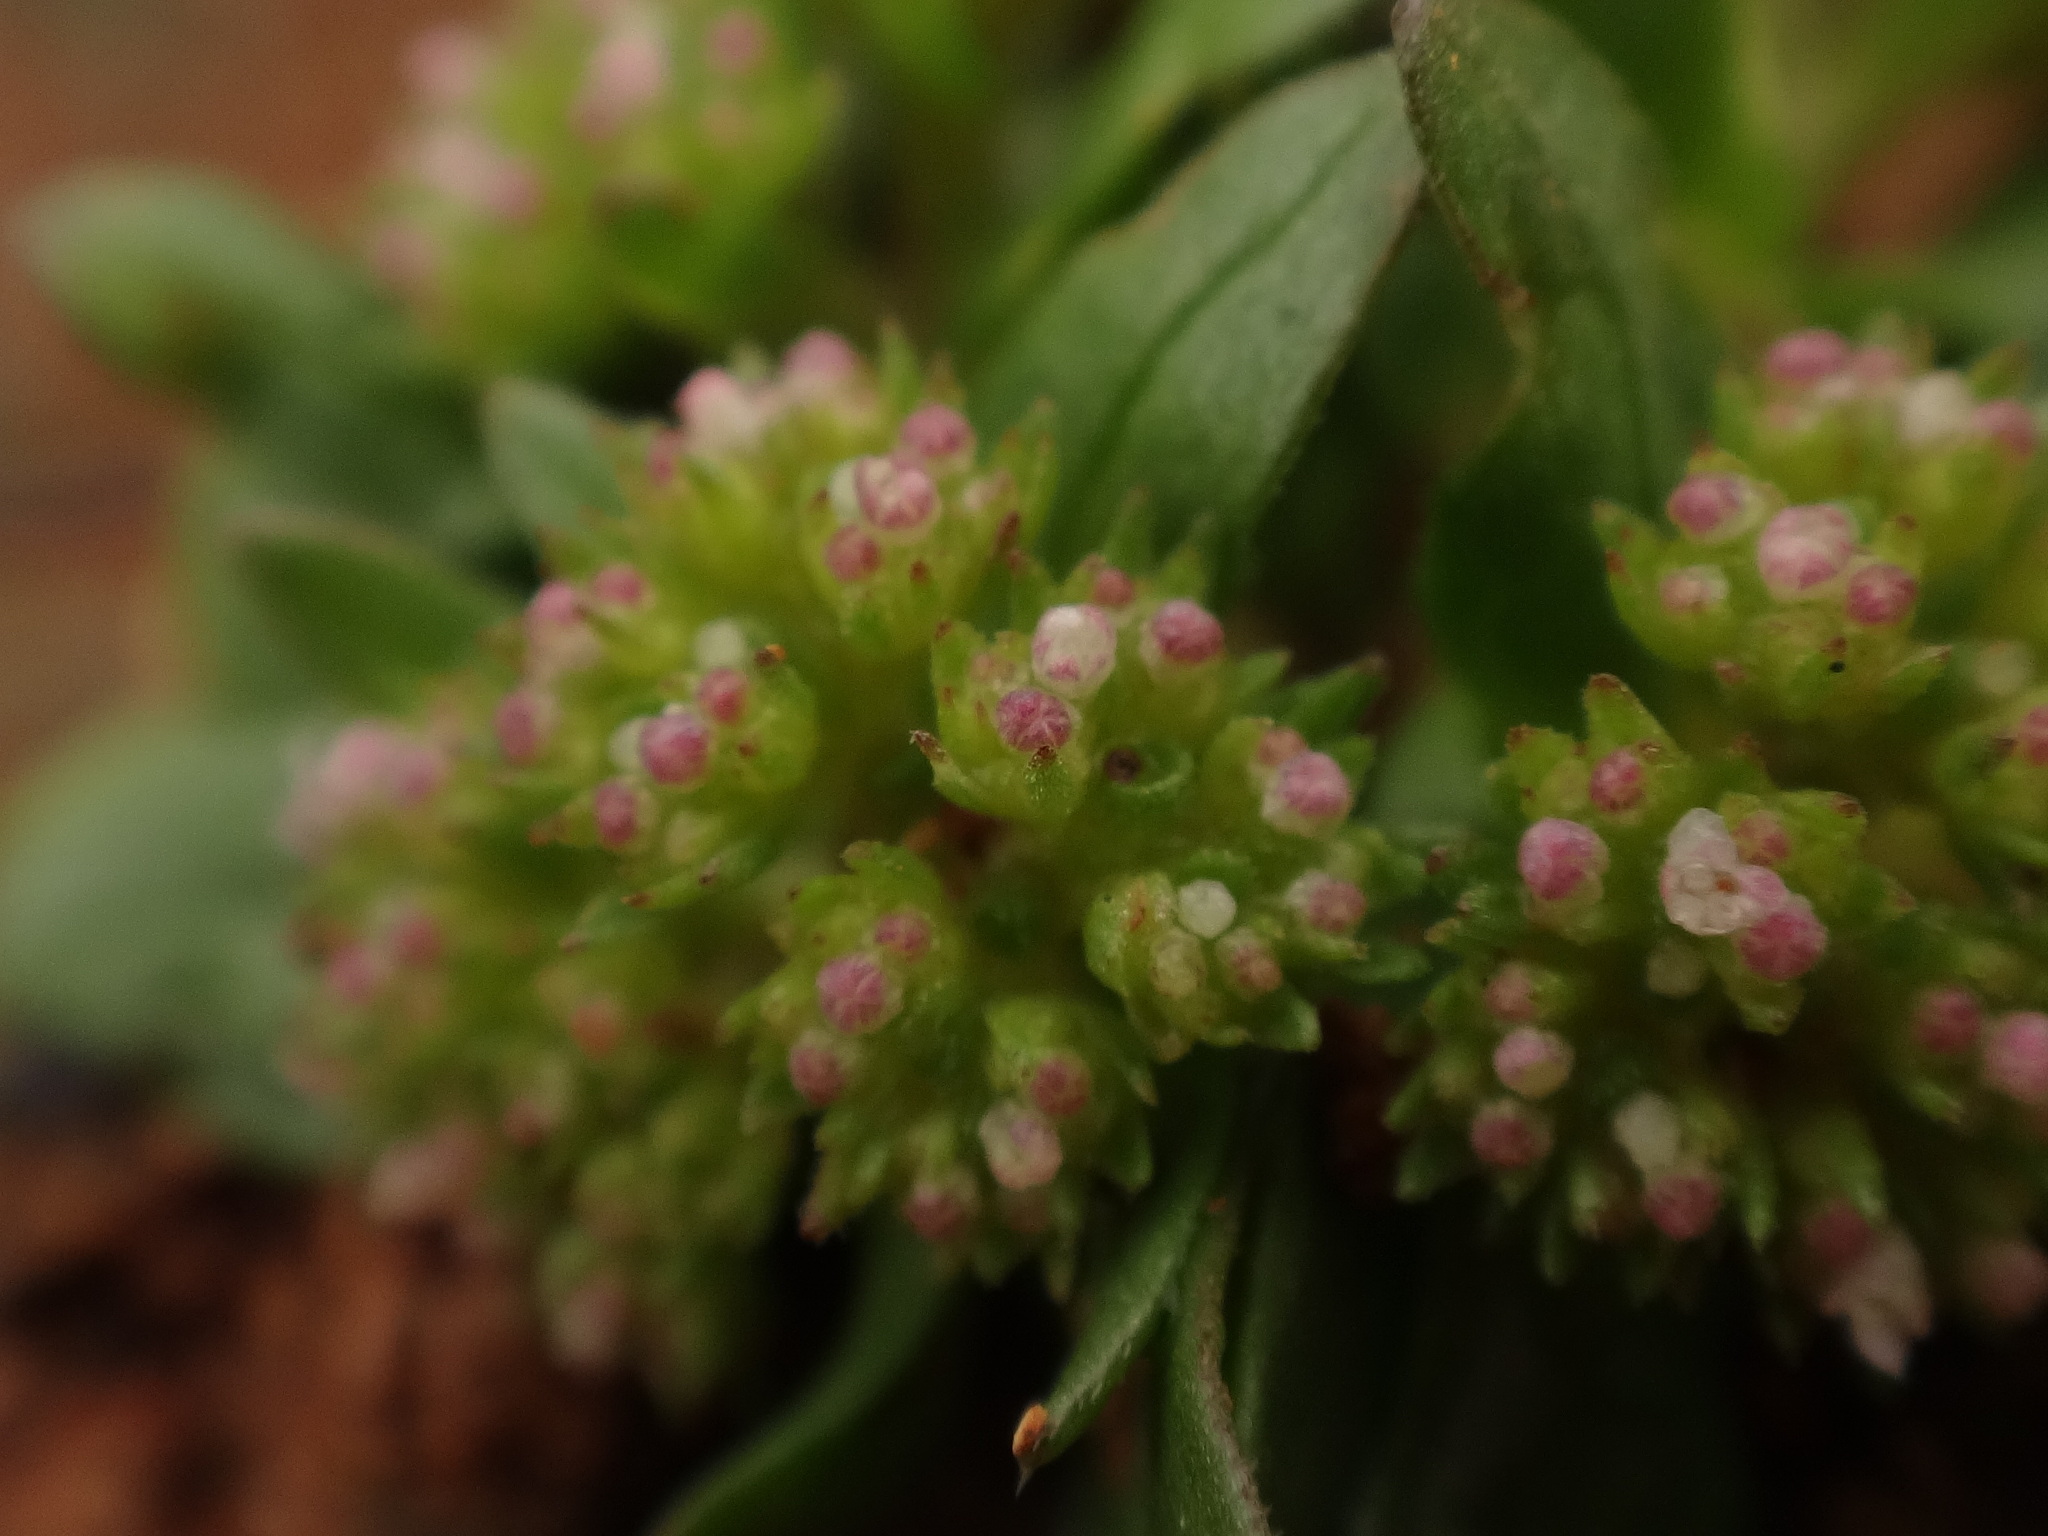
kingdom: Plantae
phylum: Tracheophyta
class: Magnoliopsida
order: Dipsacales
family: Caprifoliaceae
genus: Valerianella
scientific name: Valerianella microcarpa
